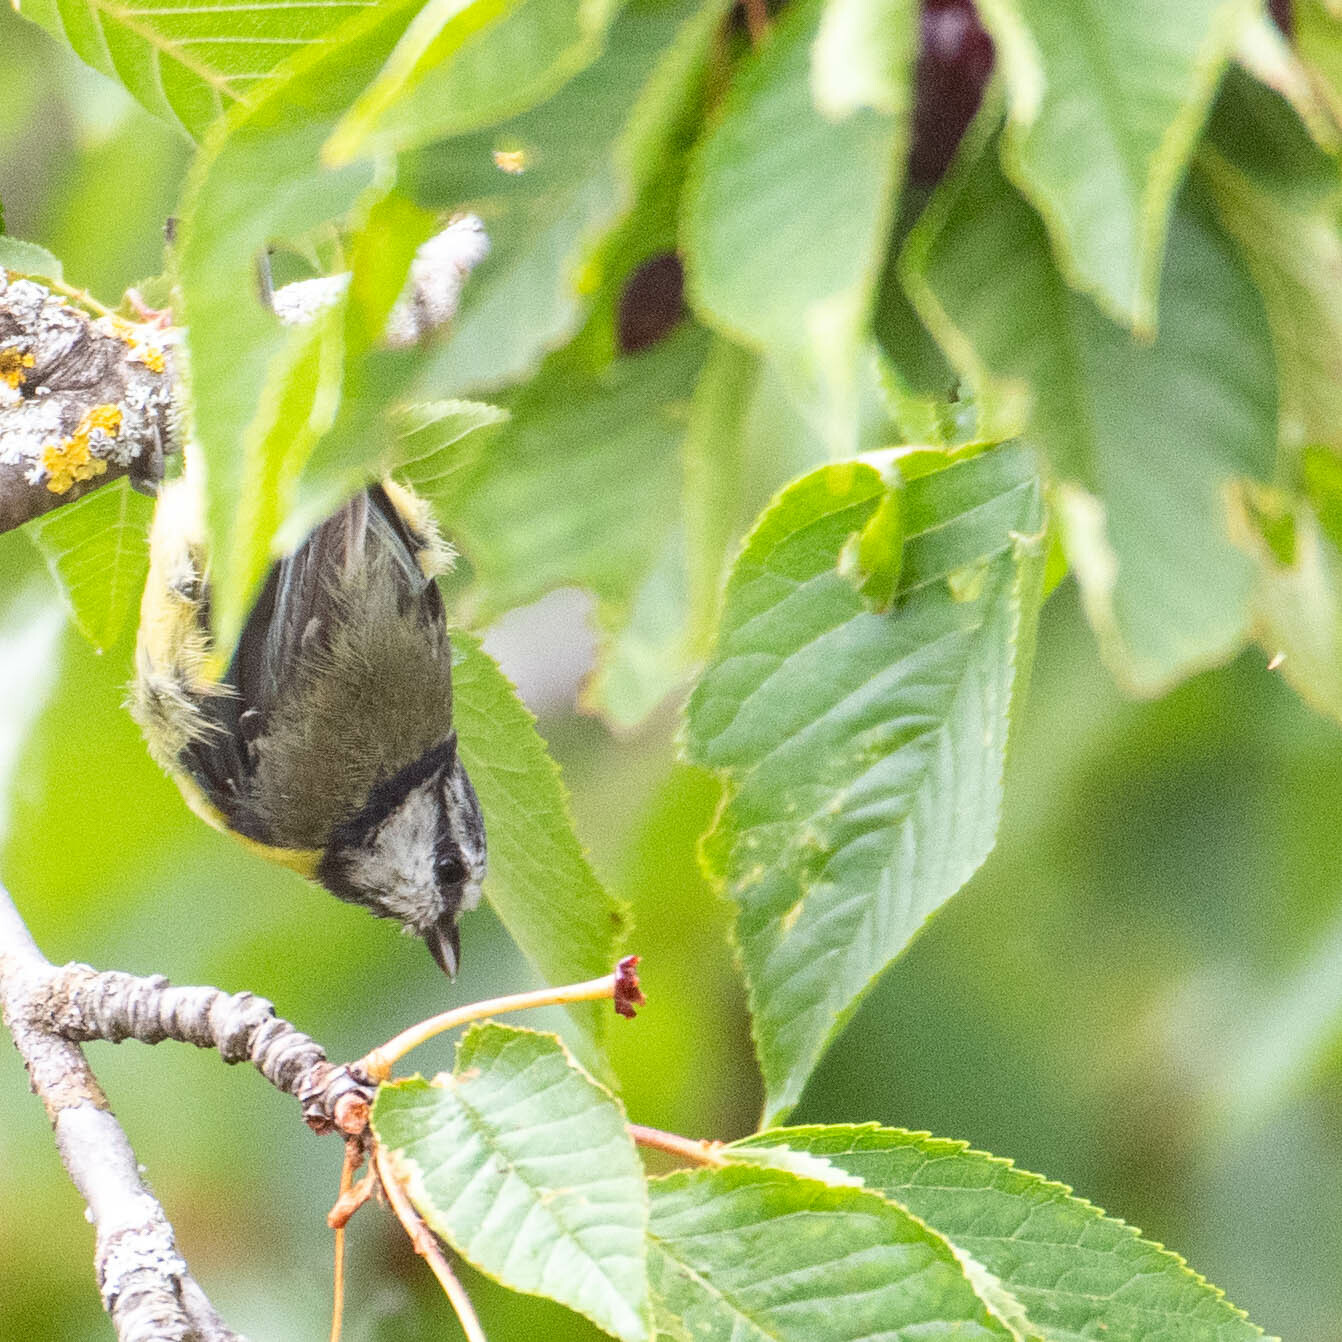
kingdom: Animalia
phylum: Chordata
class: Aves
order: Passeriformes
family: Paridae
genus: Cyanistes
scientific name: Cyanistes caeruleus
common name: Eurasian blue tit
